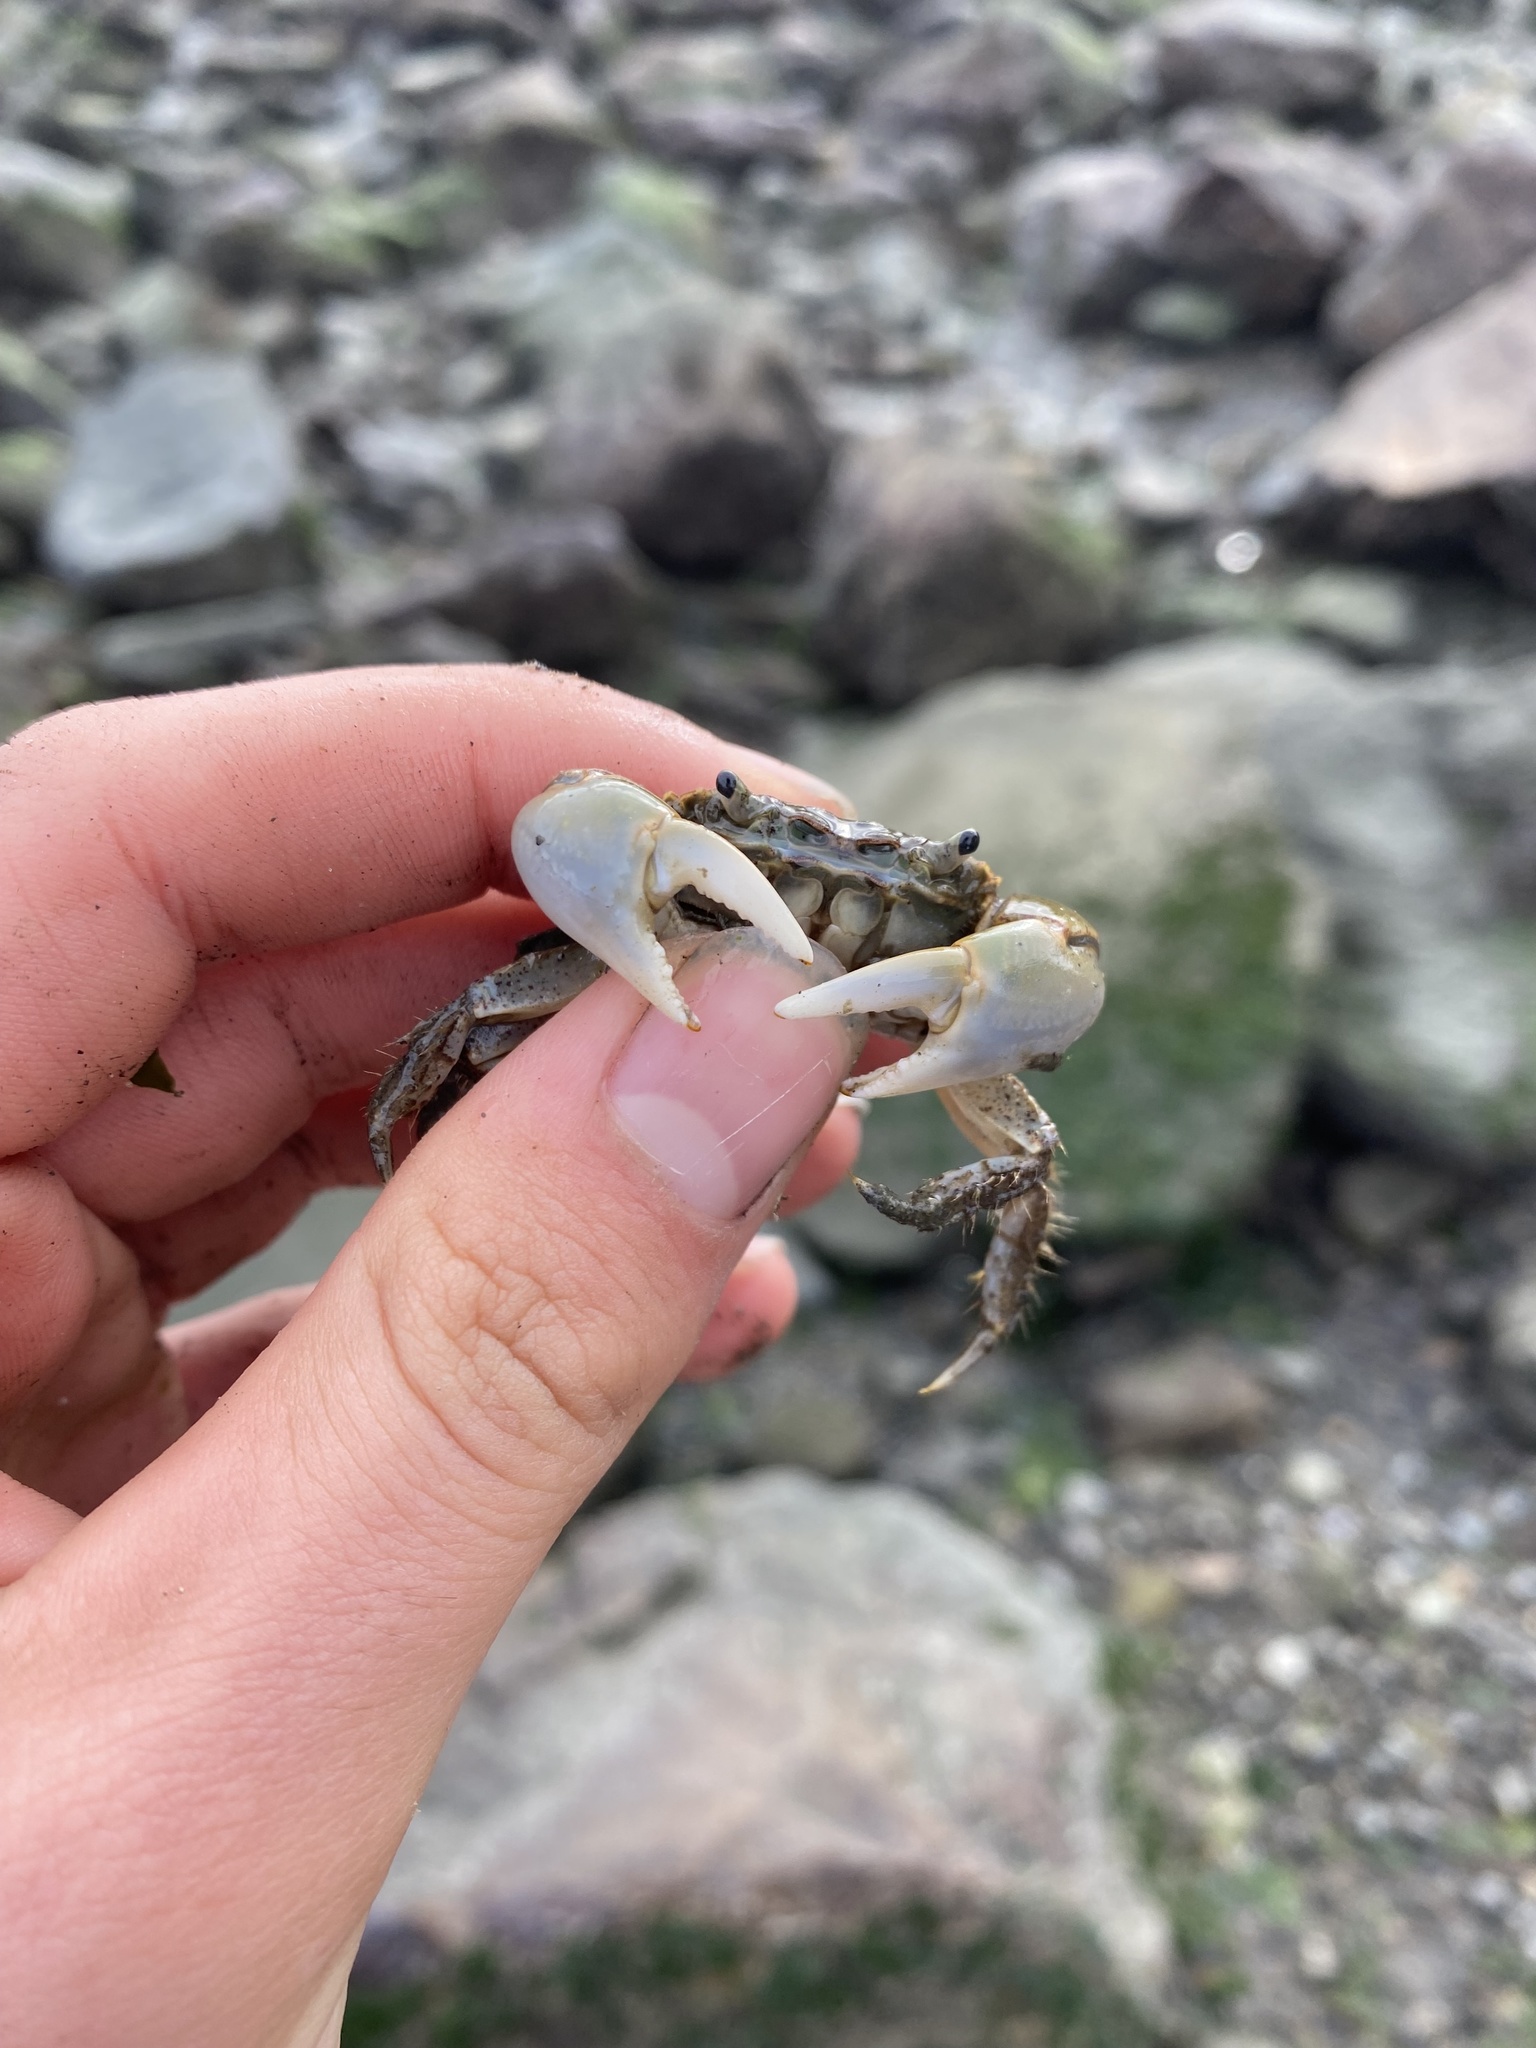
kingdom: Animalia
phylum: Arthropoda
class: Malacostraca
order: Decapoda
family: Varunidae
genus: Hemigrapsus
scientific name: Hemigrapsus oregonensis
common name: Yellow shore crab
